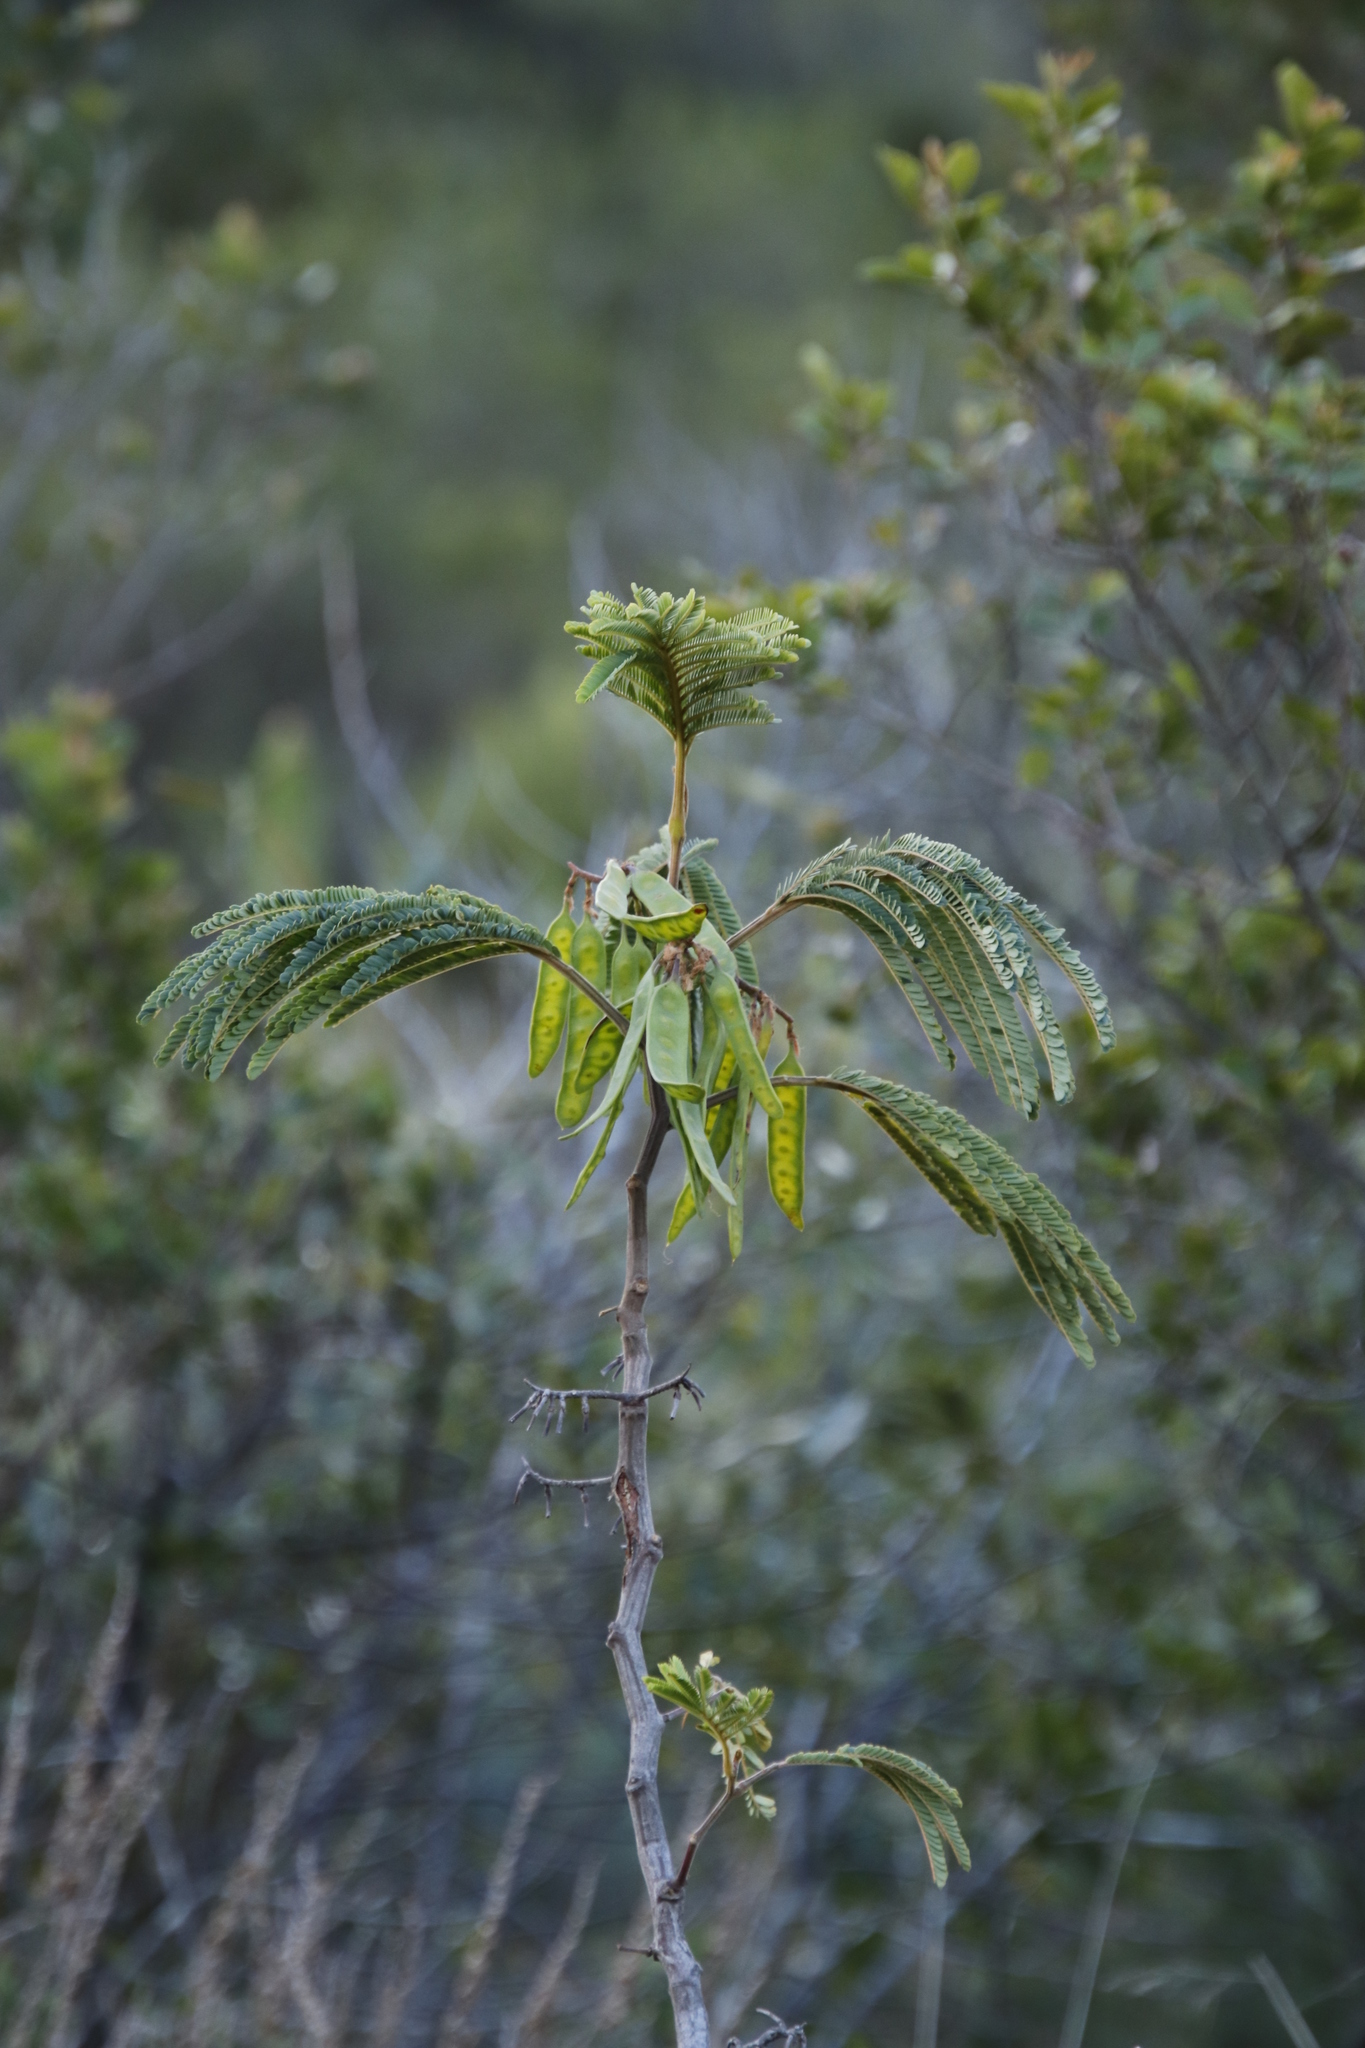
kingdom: Plantae
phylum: Tracheophyta
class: Magnoliopsida
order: Fabales
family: Fabaceae
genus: Paraserianthes
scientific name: Paraserianthes lophantha
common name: Plume albizia
